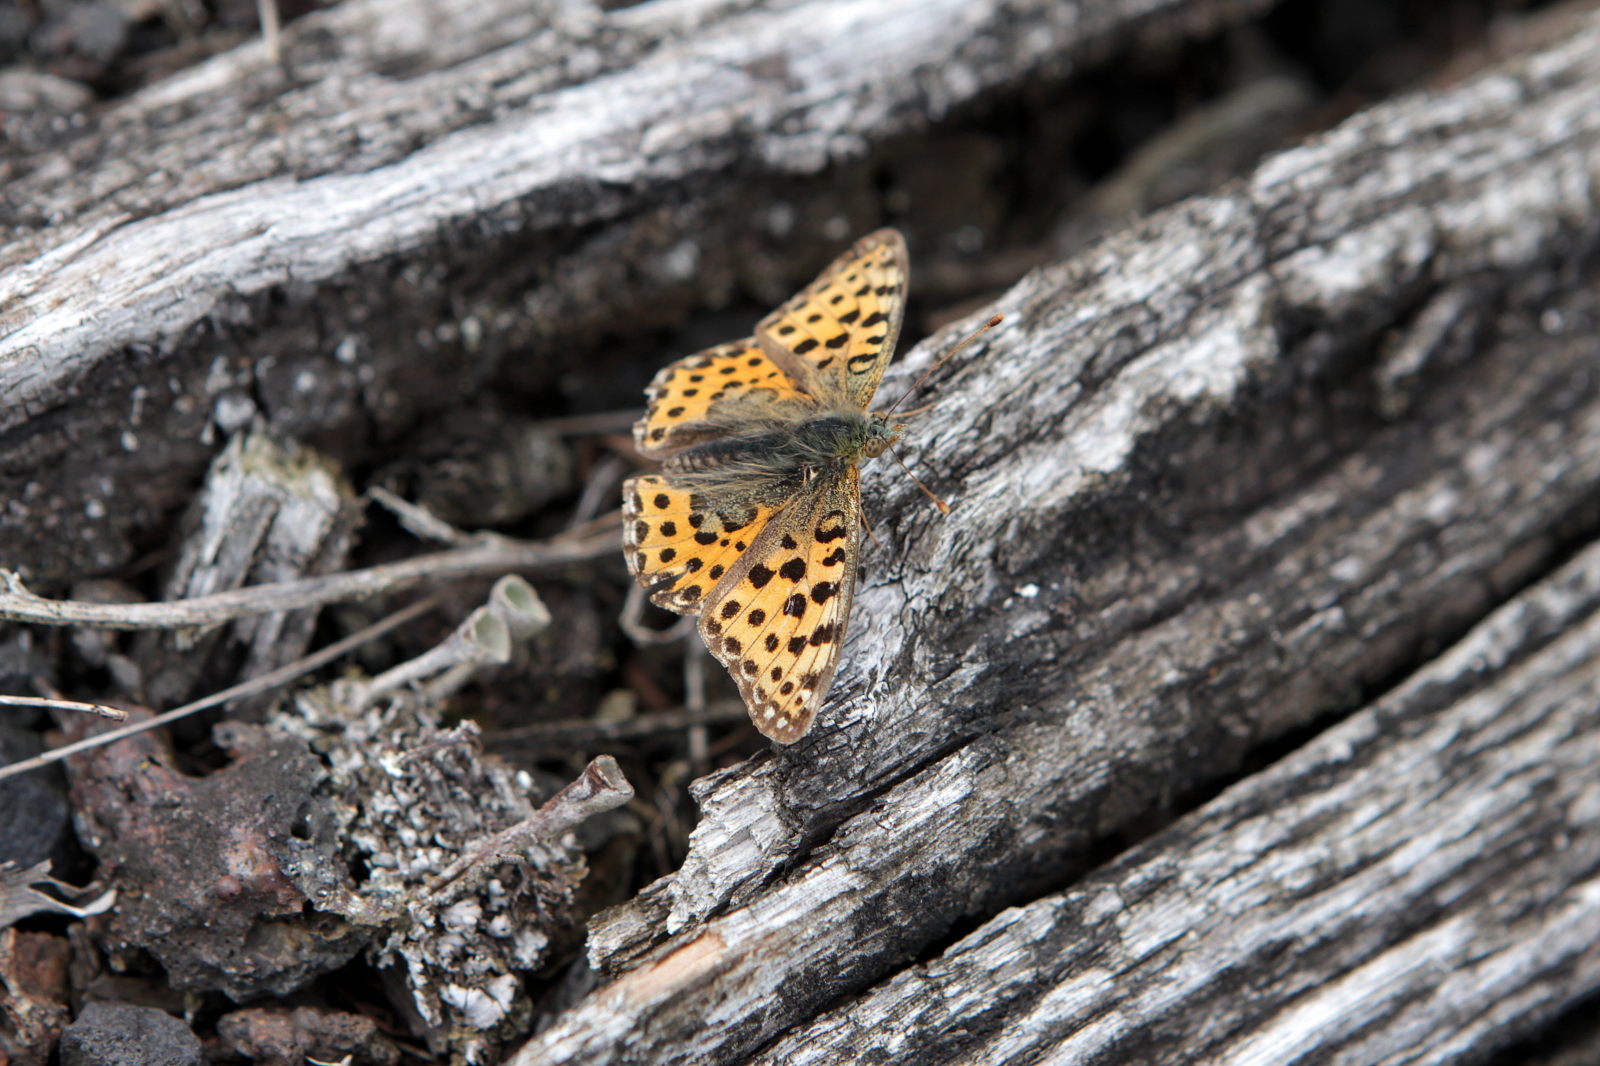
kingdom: Animalia
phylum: Arthropoda
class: Insecta
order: Lepidoptera
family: Nymphalidae
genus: Issoria
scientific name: Issoria lathonia
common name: Queen of spain fritillary
